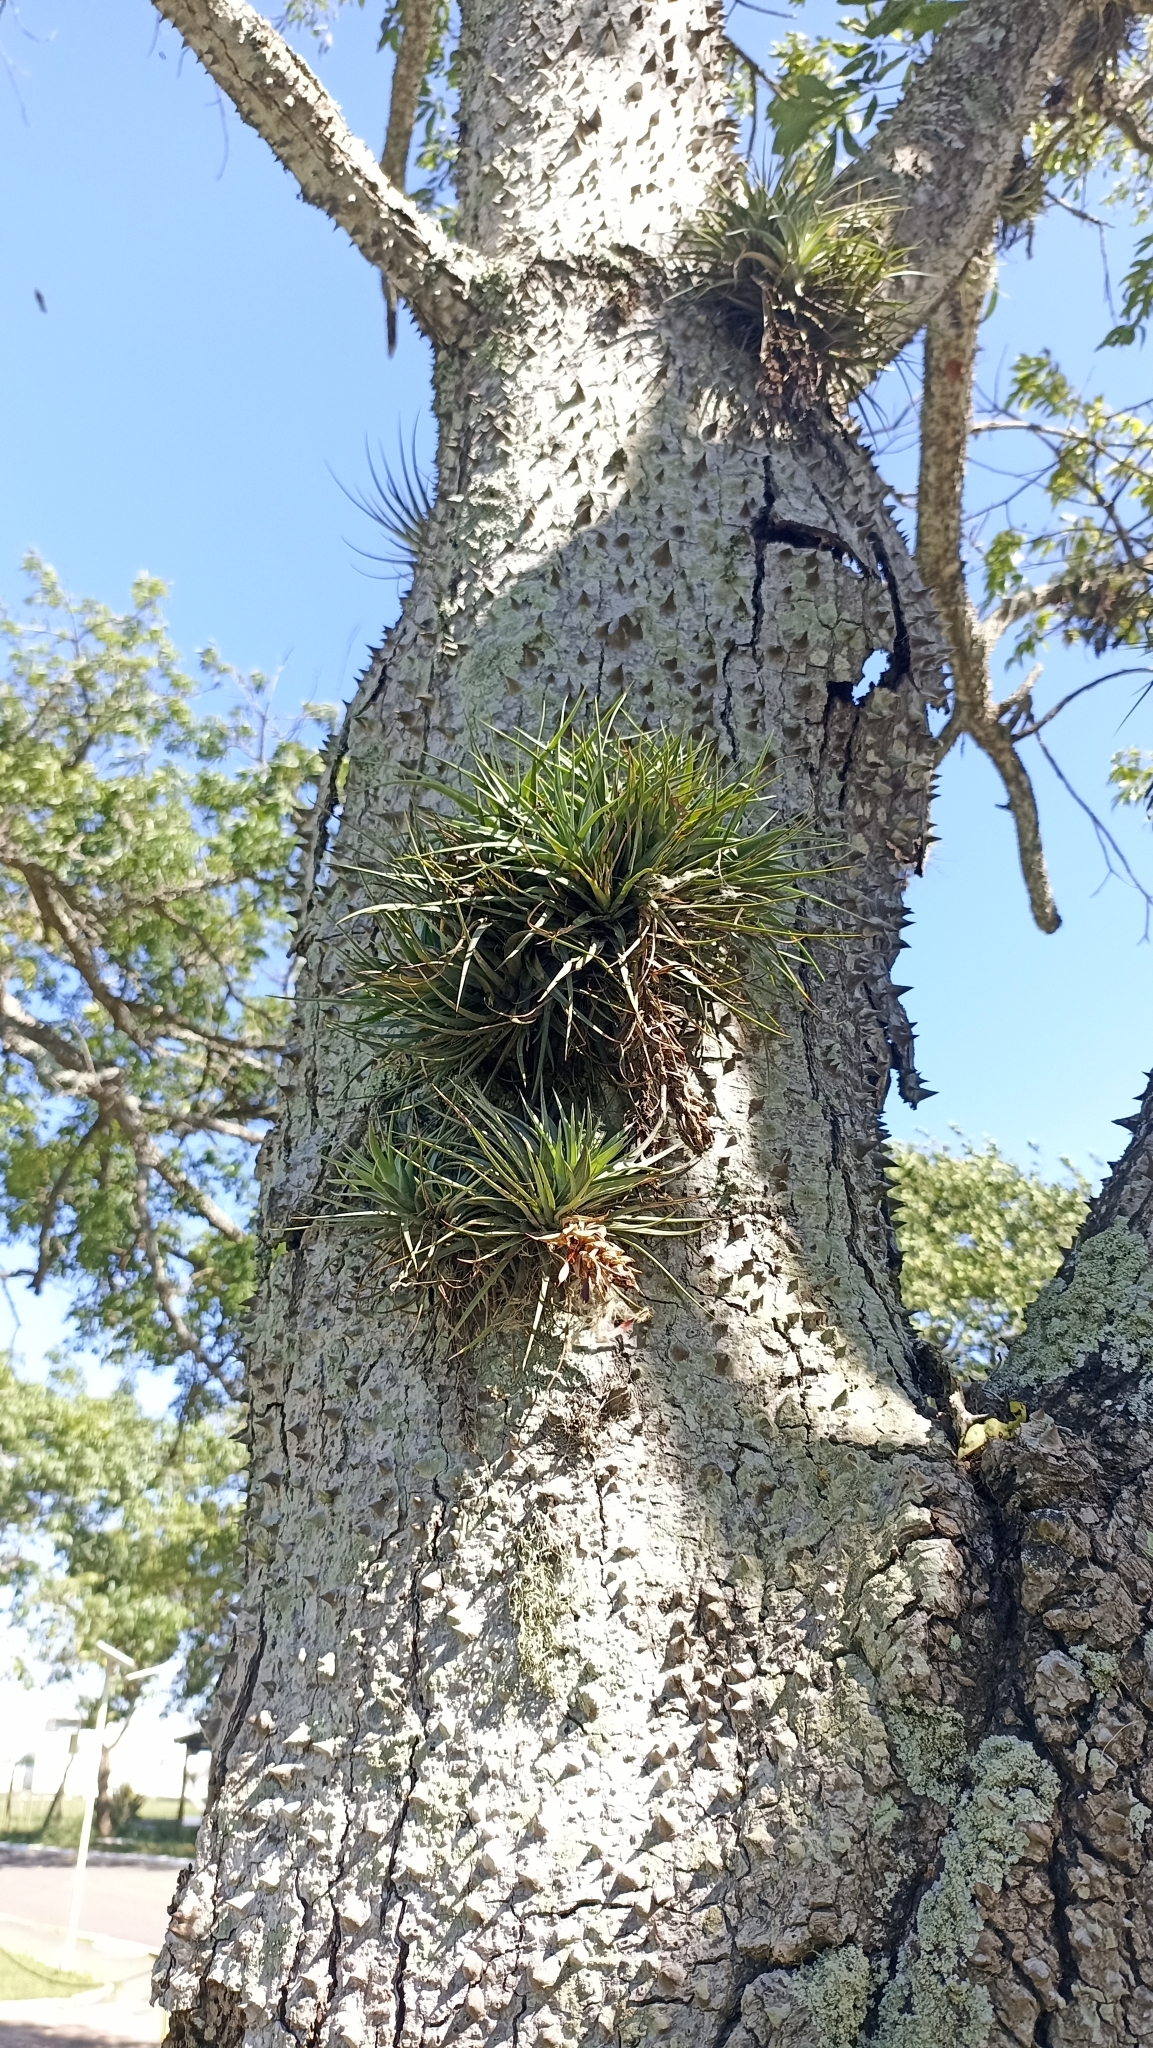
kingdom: Plantae
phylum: Tracheophyta
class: Liliopsida
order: Poales
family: Bromeliaceae
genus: Tillandsia
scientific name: Tillandsia stricta
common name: Airplant
